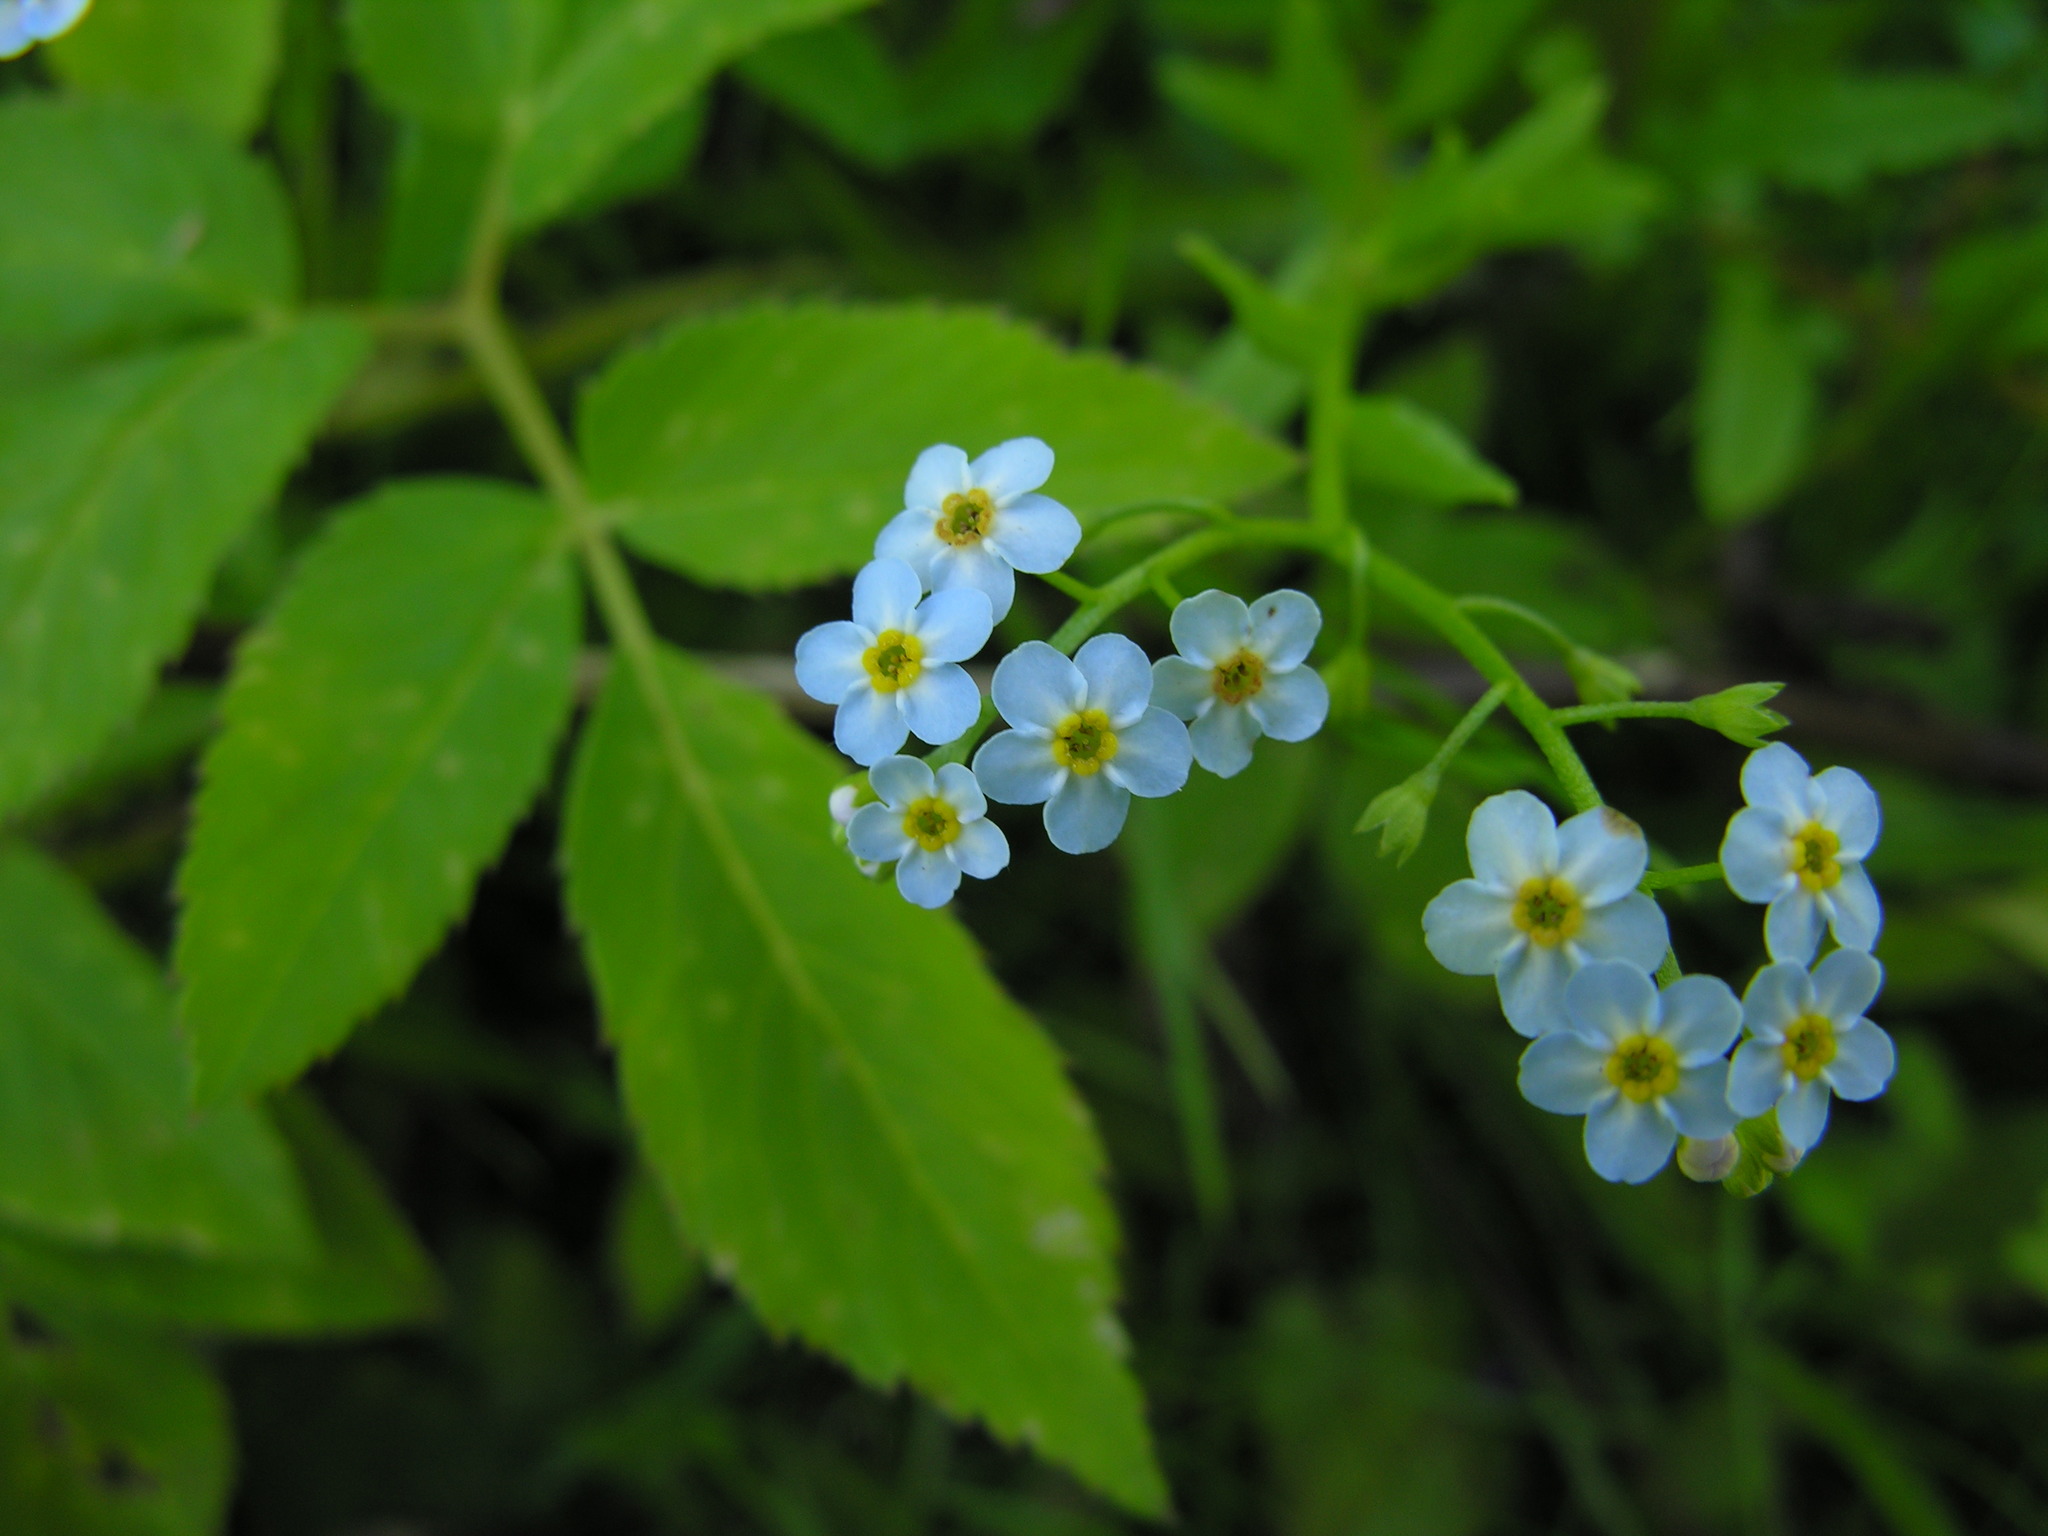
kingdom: Plantae
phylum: Tracheophyta
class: Magnoliopsida
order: Boraginales
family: Boraginaceae
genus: Myosotis
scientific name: Myosotis scorpioides
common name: Water forget-me-not
